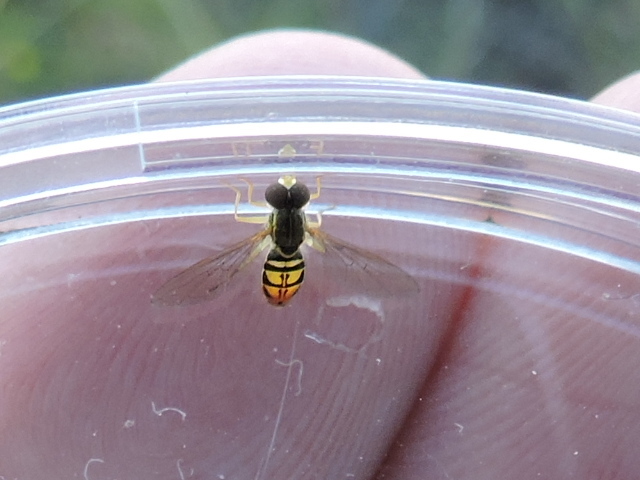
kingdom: Animalia
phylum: Arthropoda
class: Insecta
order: Diptera
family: Syrphidae
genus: Toxomerus
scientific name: Toxomerus marginatus
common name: Syrphid fly
